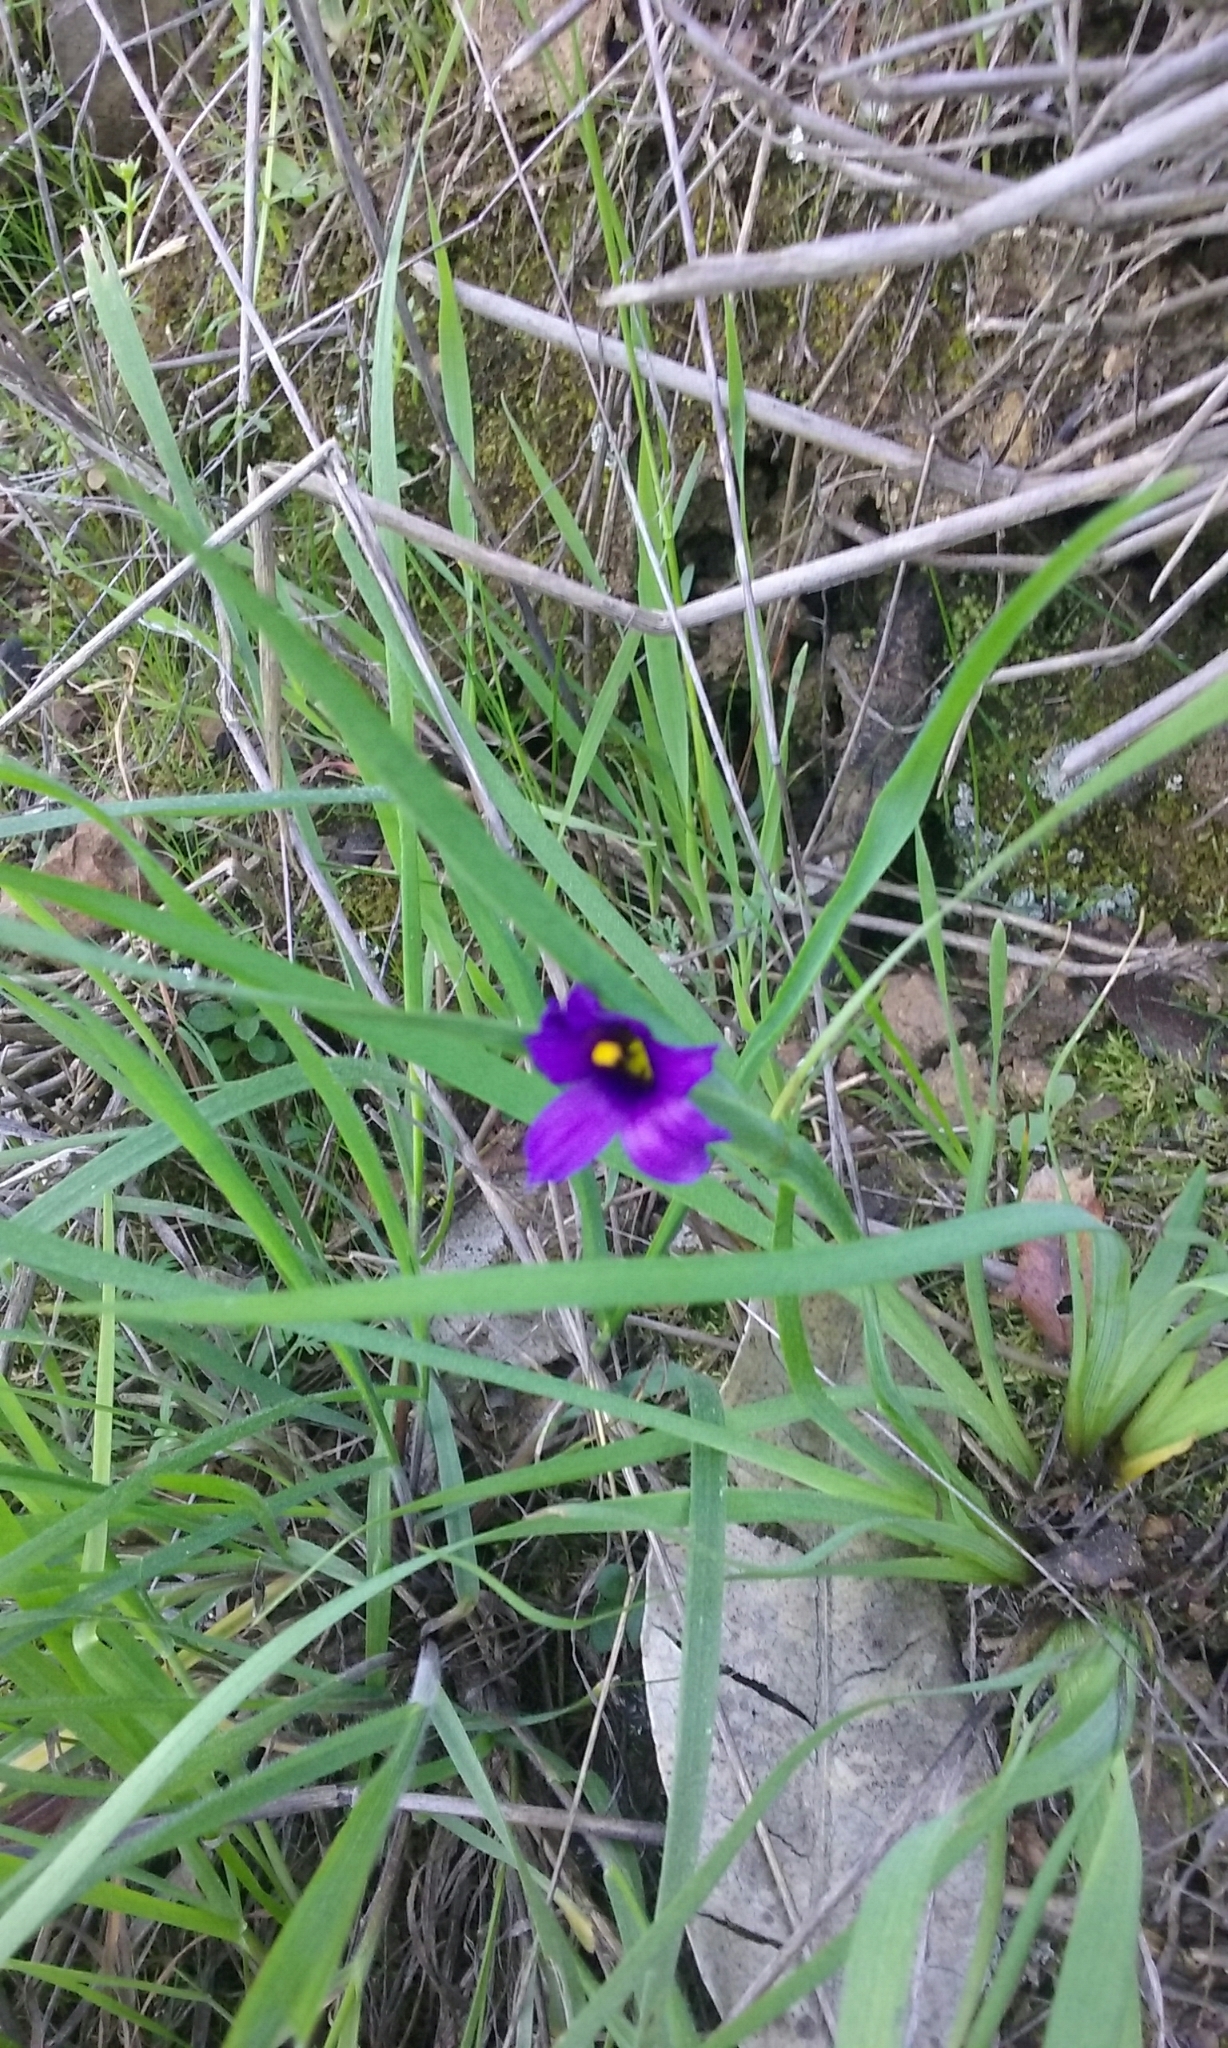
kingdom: Plantae
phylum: Tracheophyta
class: Liliopsida
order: Asparagales
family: Iridaceae
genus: Sisyrinchium
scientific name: Sisyrinchium bellum
